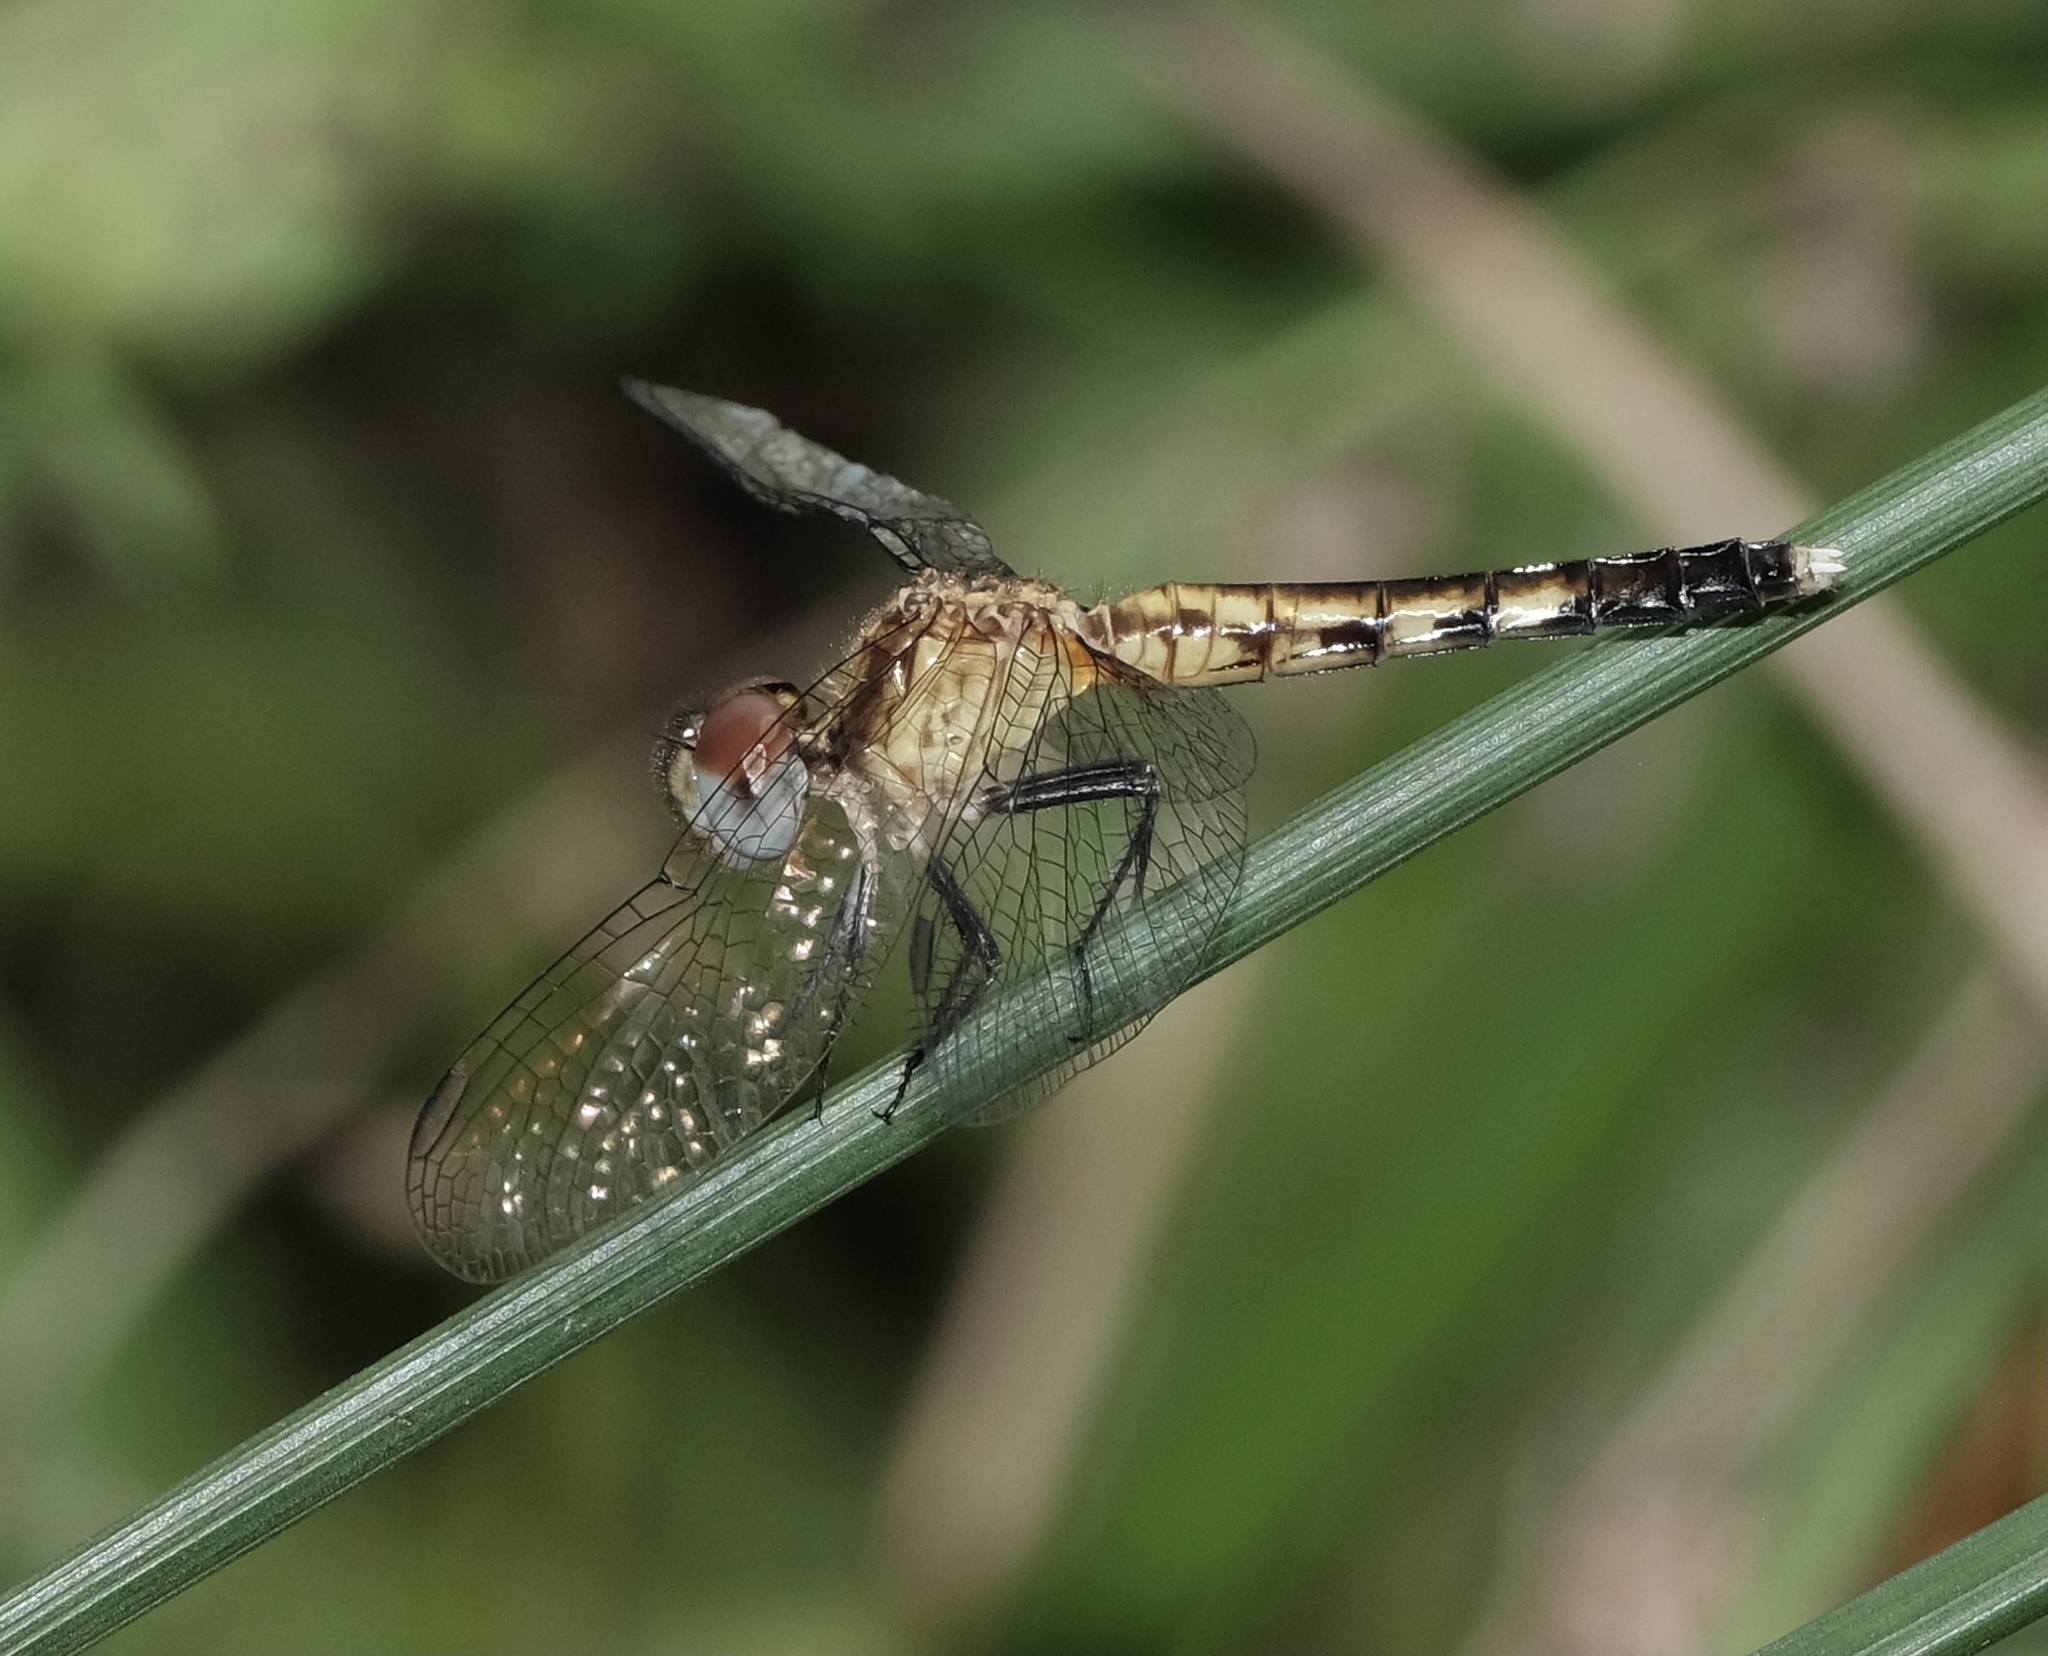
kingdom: Animalia
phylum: Arthropoda
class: Insecta
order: Odonata
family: Libellulidae
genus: Erythrodiplax
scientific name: Erythrodiplax minuscula
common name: Little blue dragonlet
